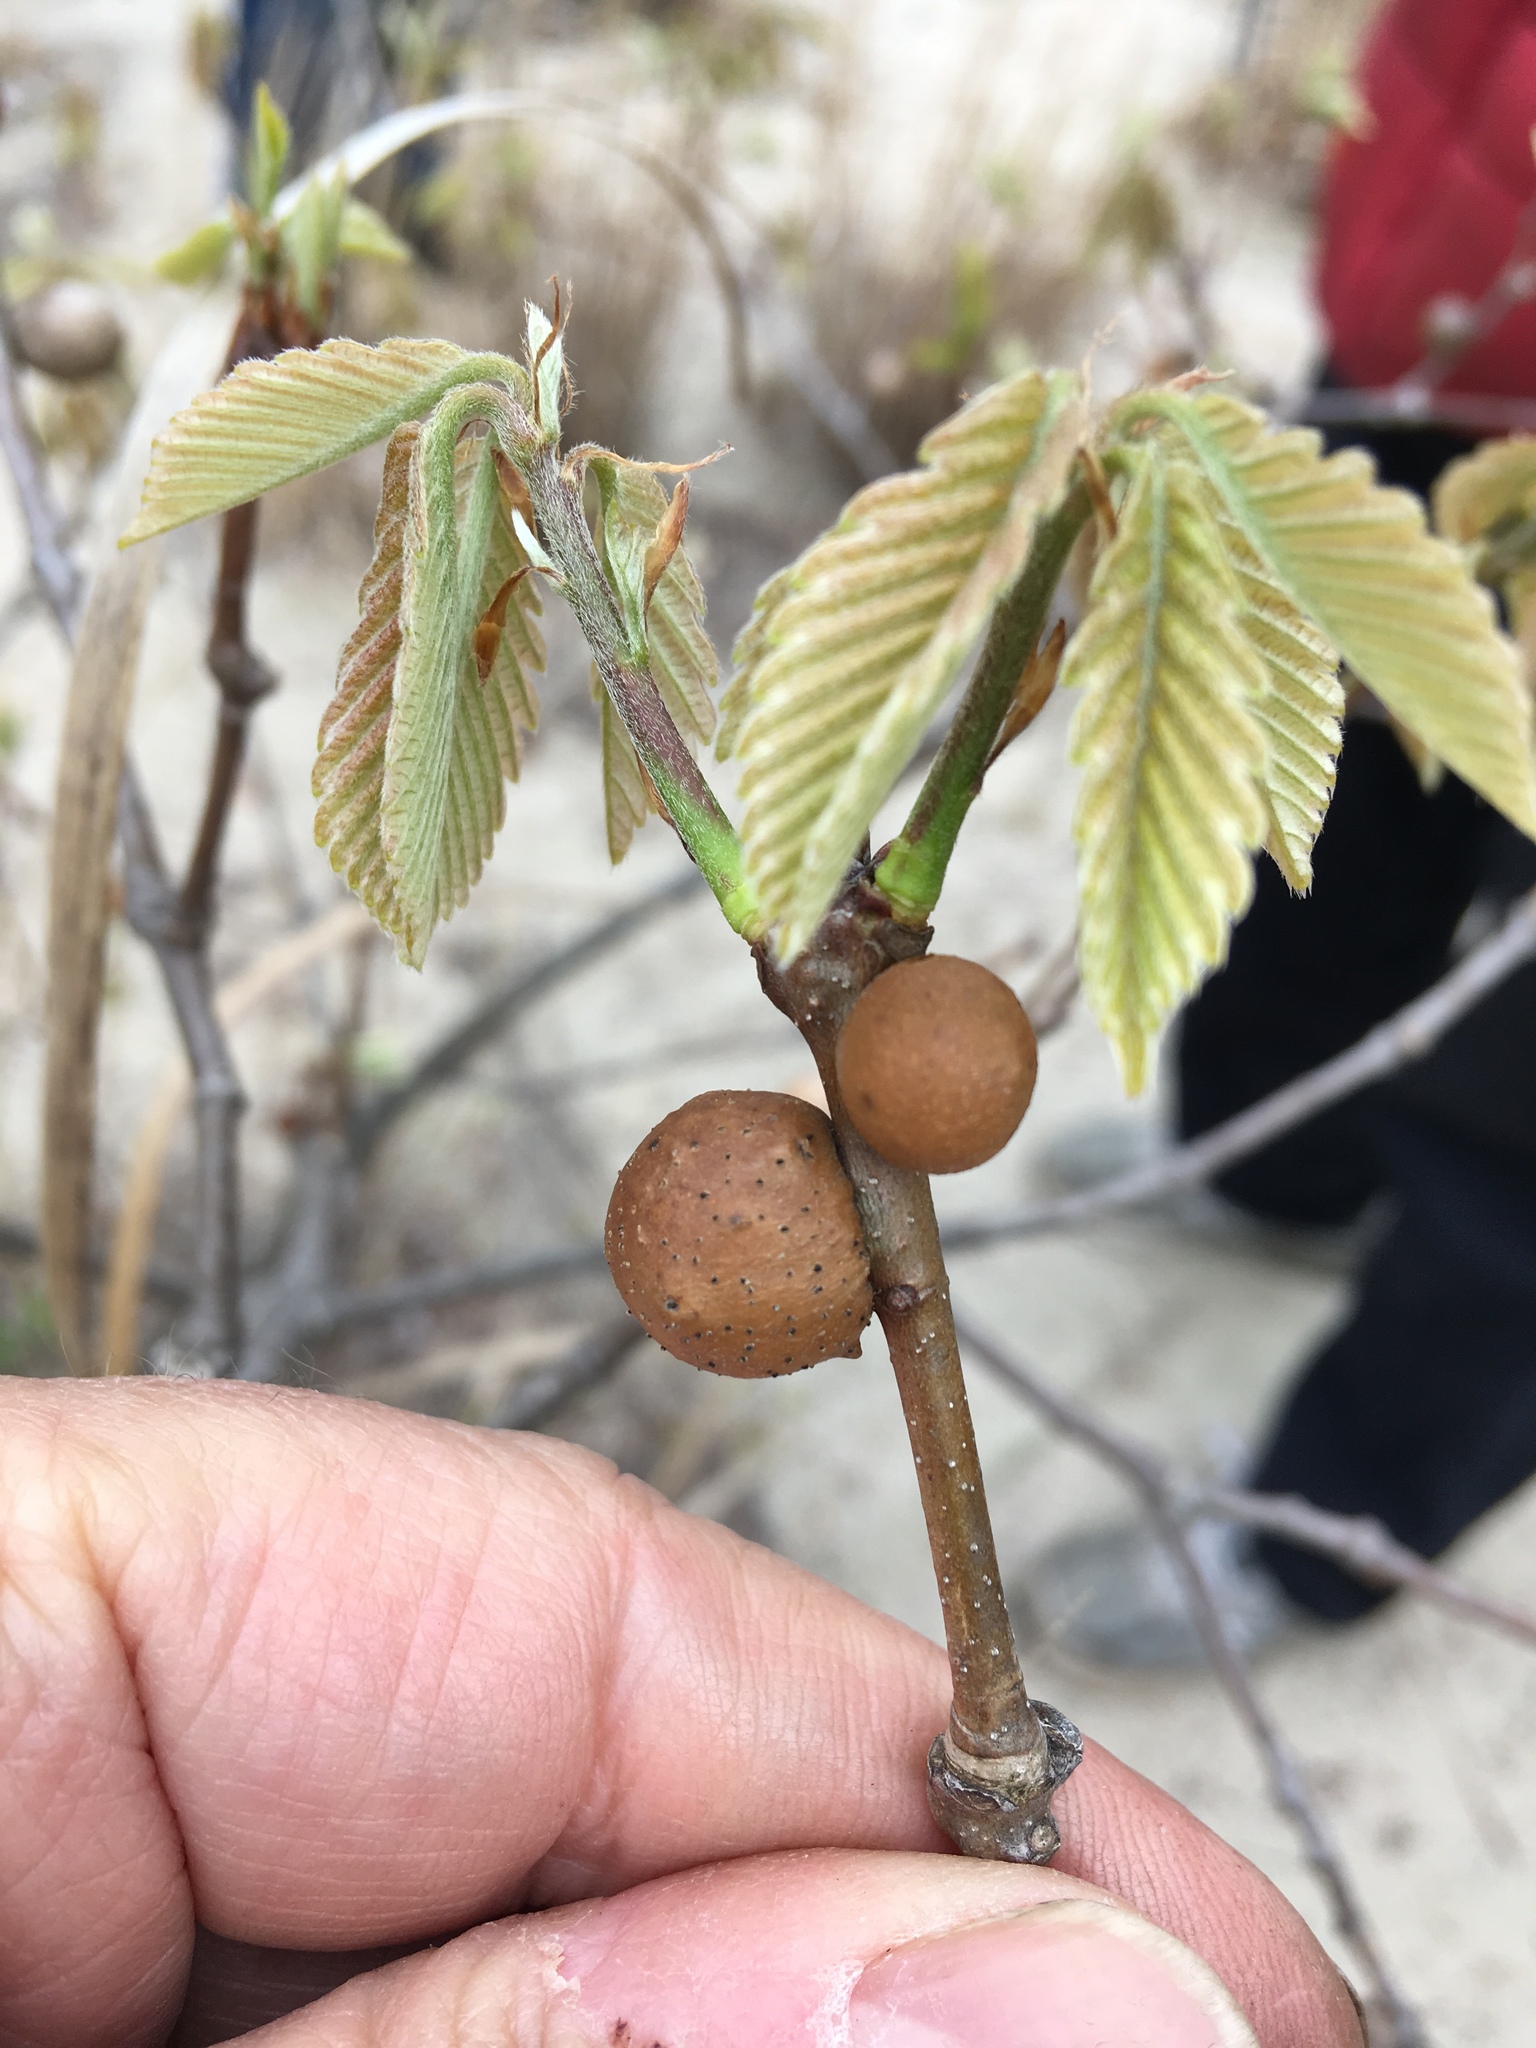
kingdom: Animalia
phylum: Arthropoda
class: Insecta
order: Hymenoptera
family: Cynipidae
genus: Disholcaspis
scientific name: Disholcaspis quercusglobulus
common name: Round bullet gall wasp
